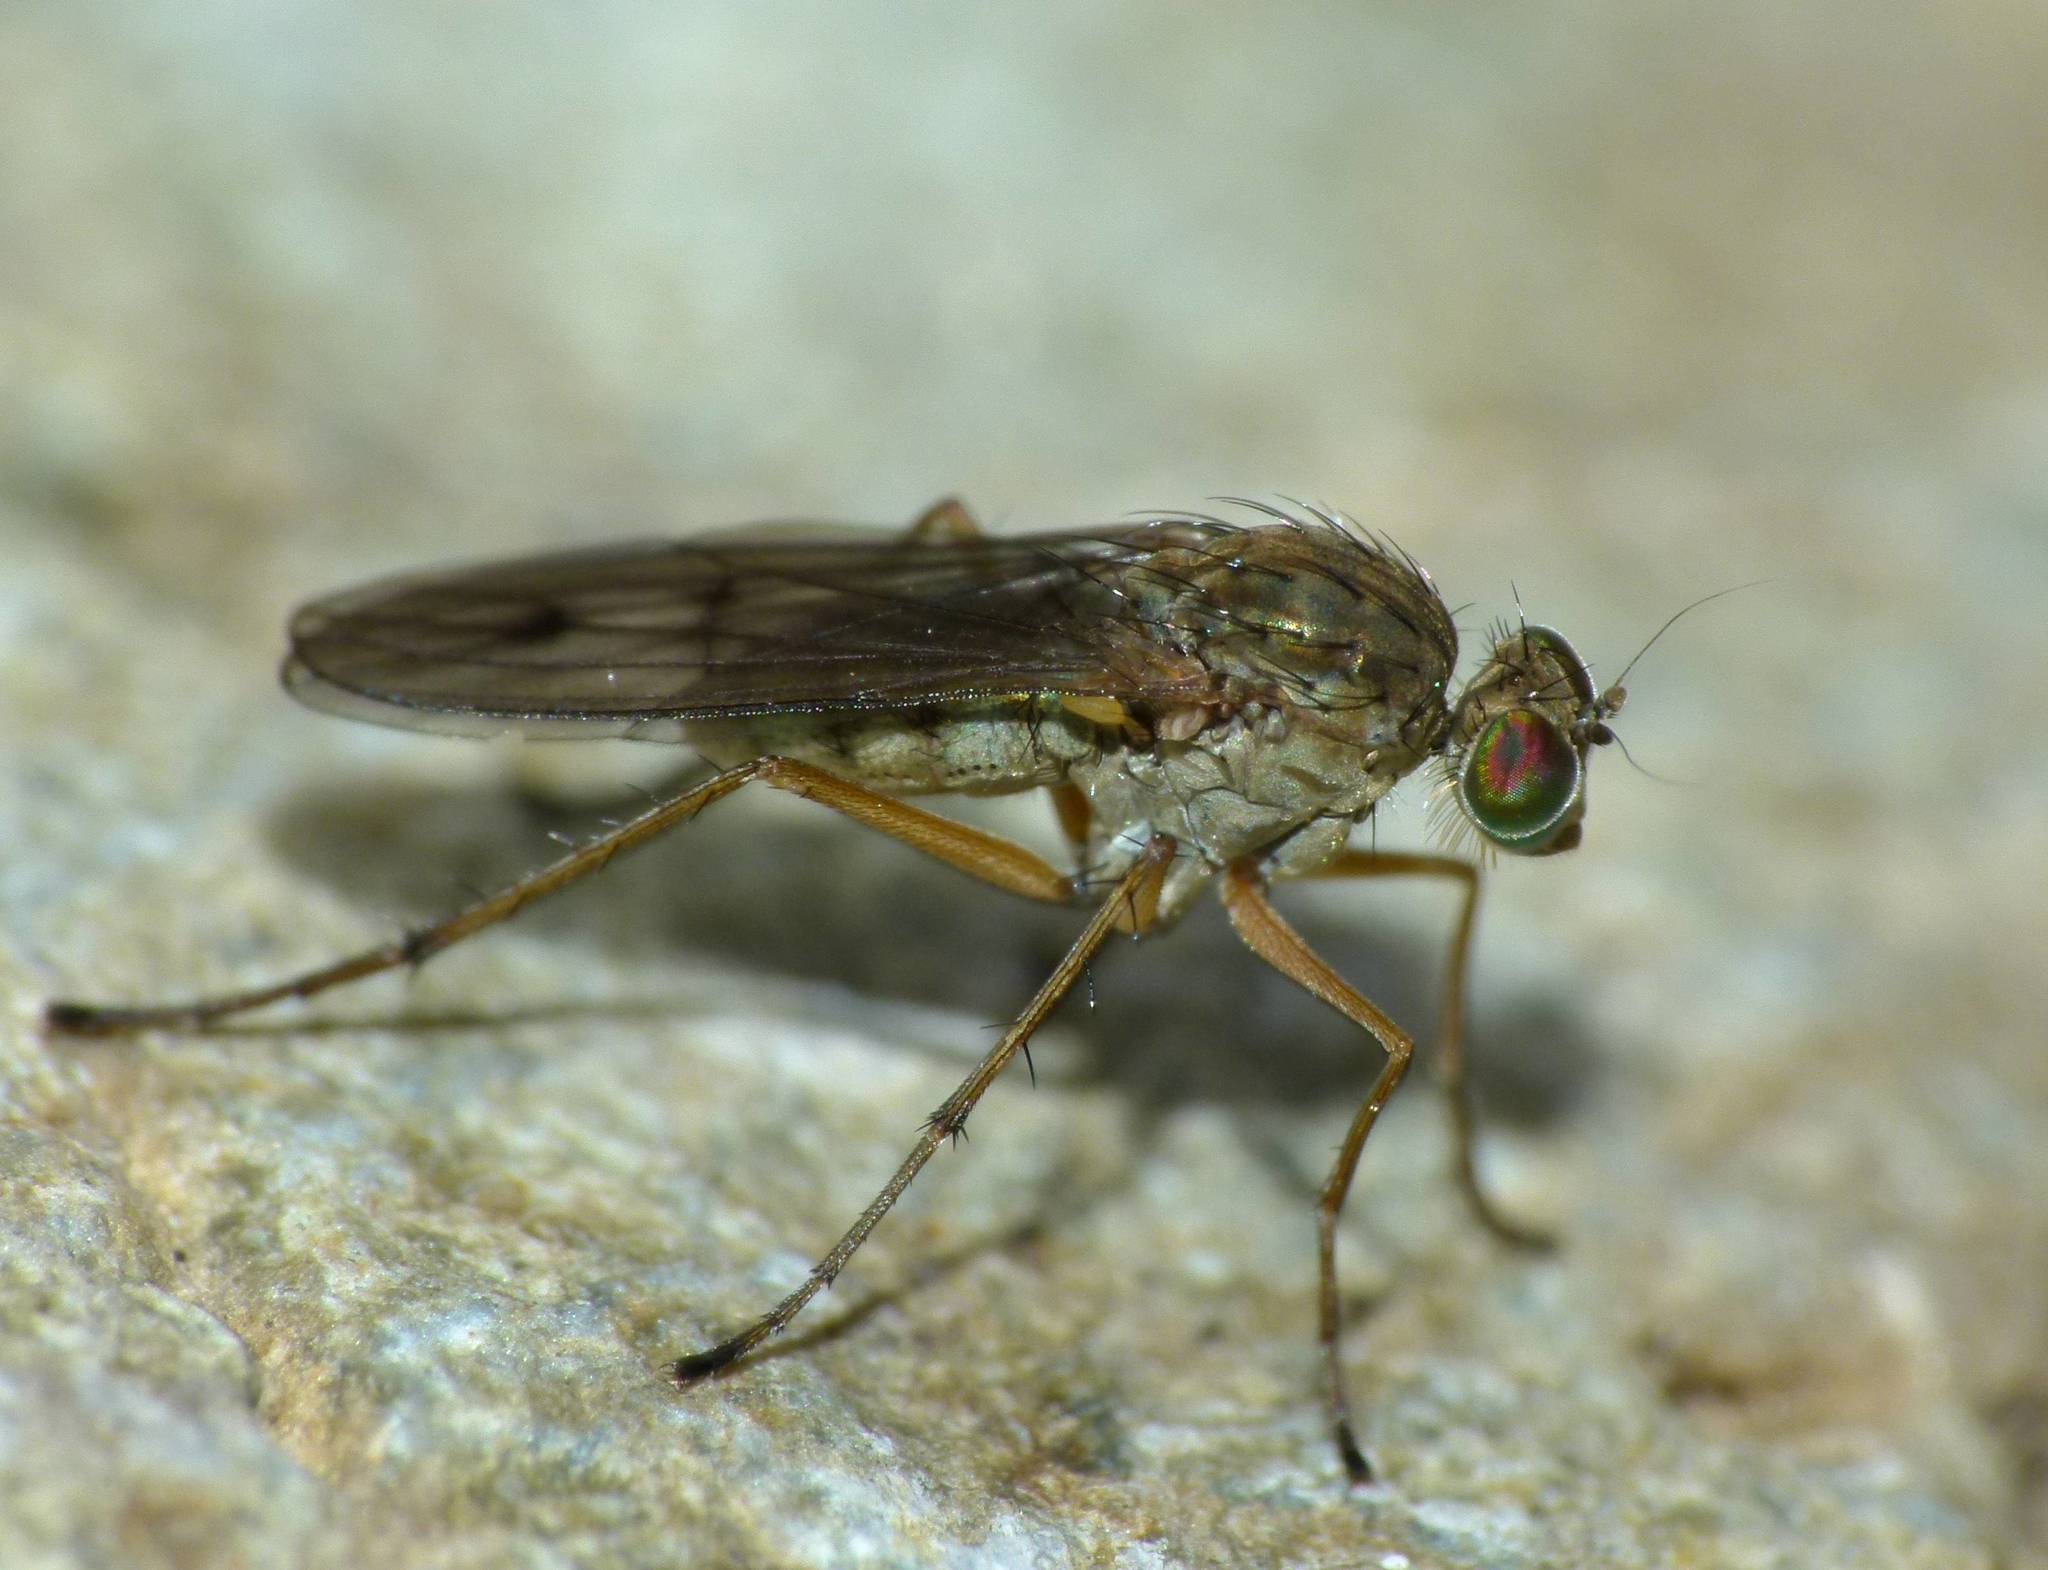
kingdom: Animalia
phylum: Arthropoda
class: Insecta
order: Diptera
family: Dolichopodidae
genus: Helichochaetus
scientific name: Helichochaetus discifer
